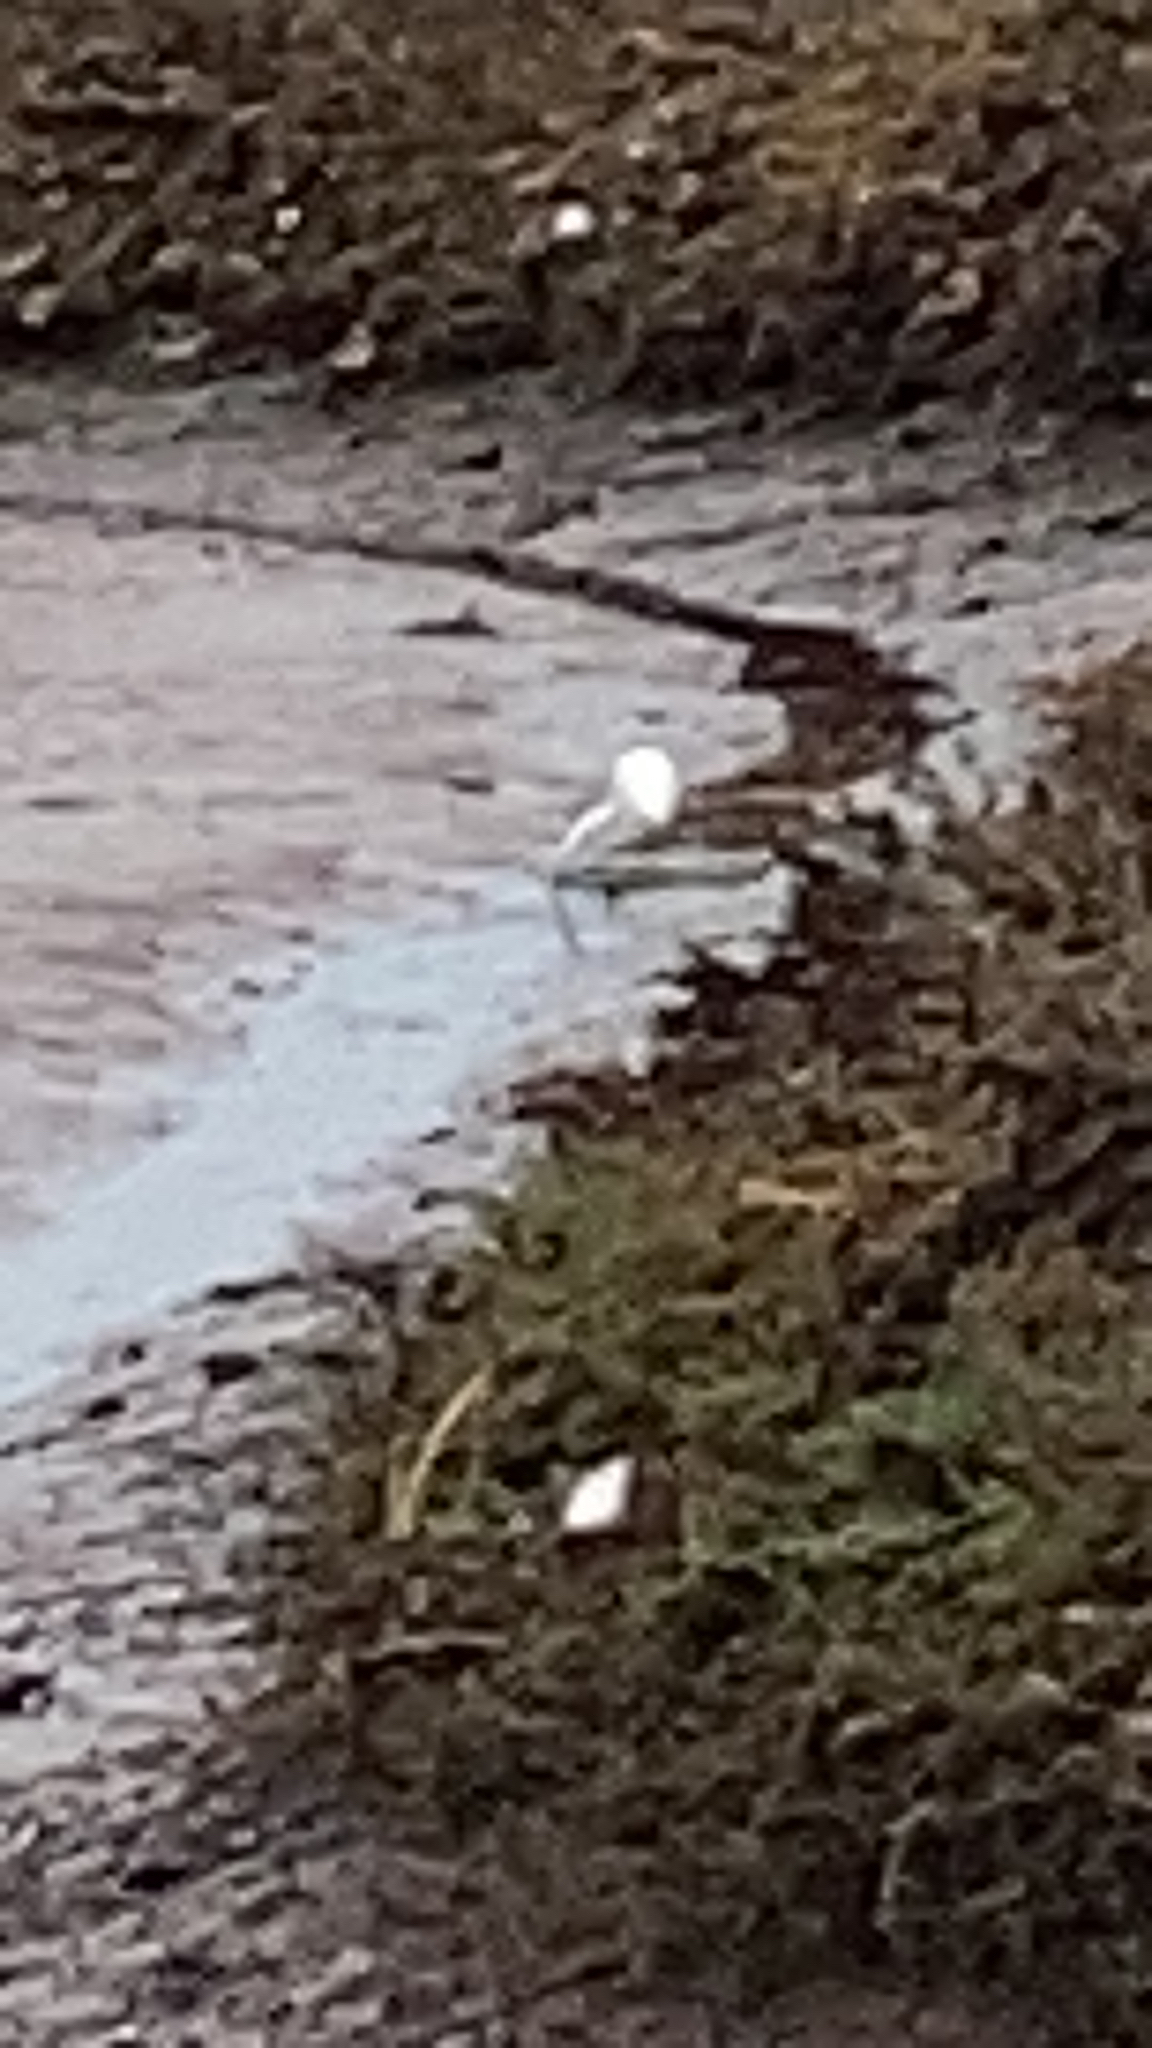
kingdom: Animalia
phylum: Chordata
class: Aves
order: Pelecaniformes
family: Ardeidae
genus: Egretta
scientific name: Egretta thula
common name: Snowy egret
